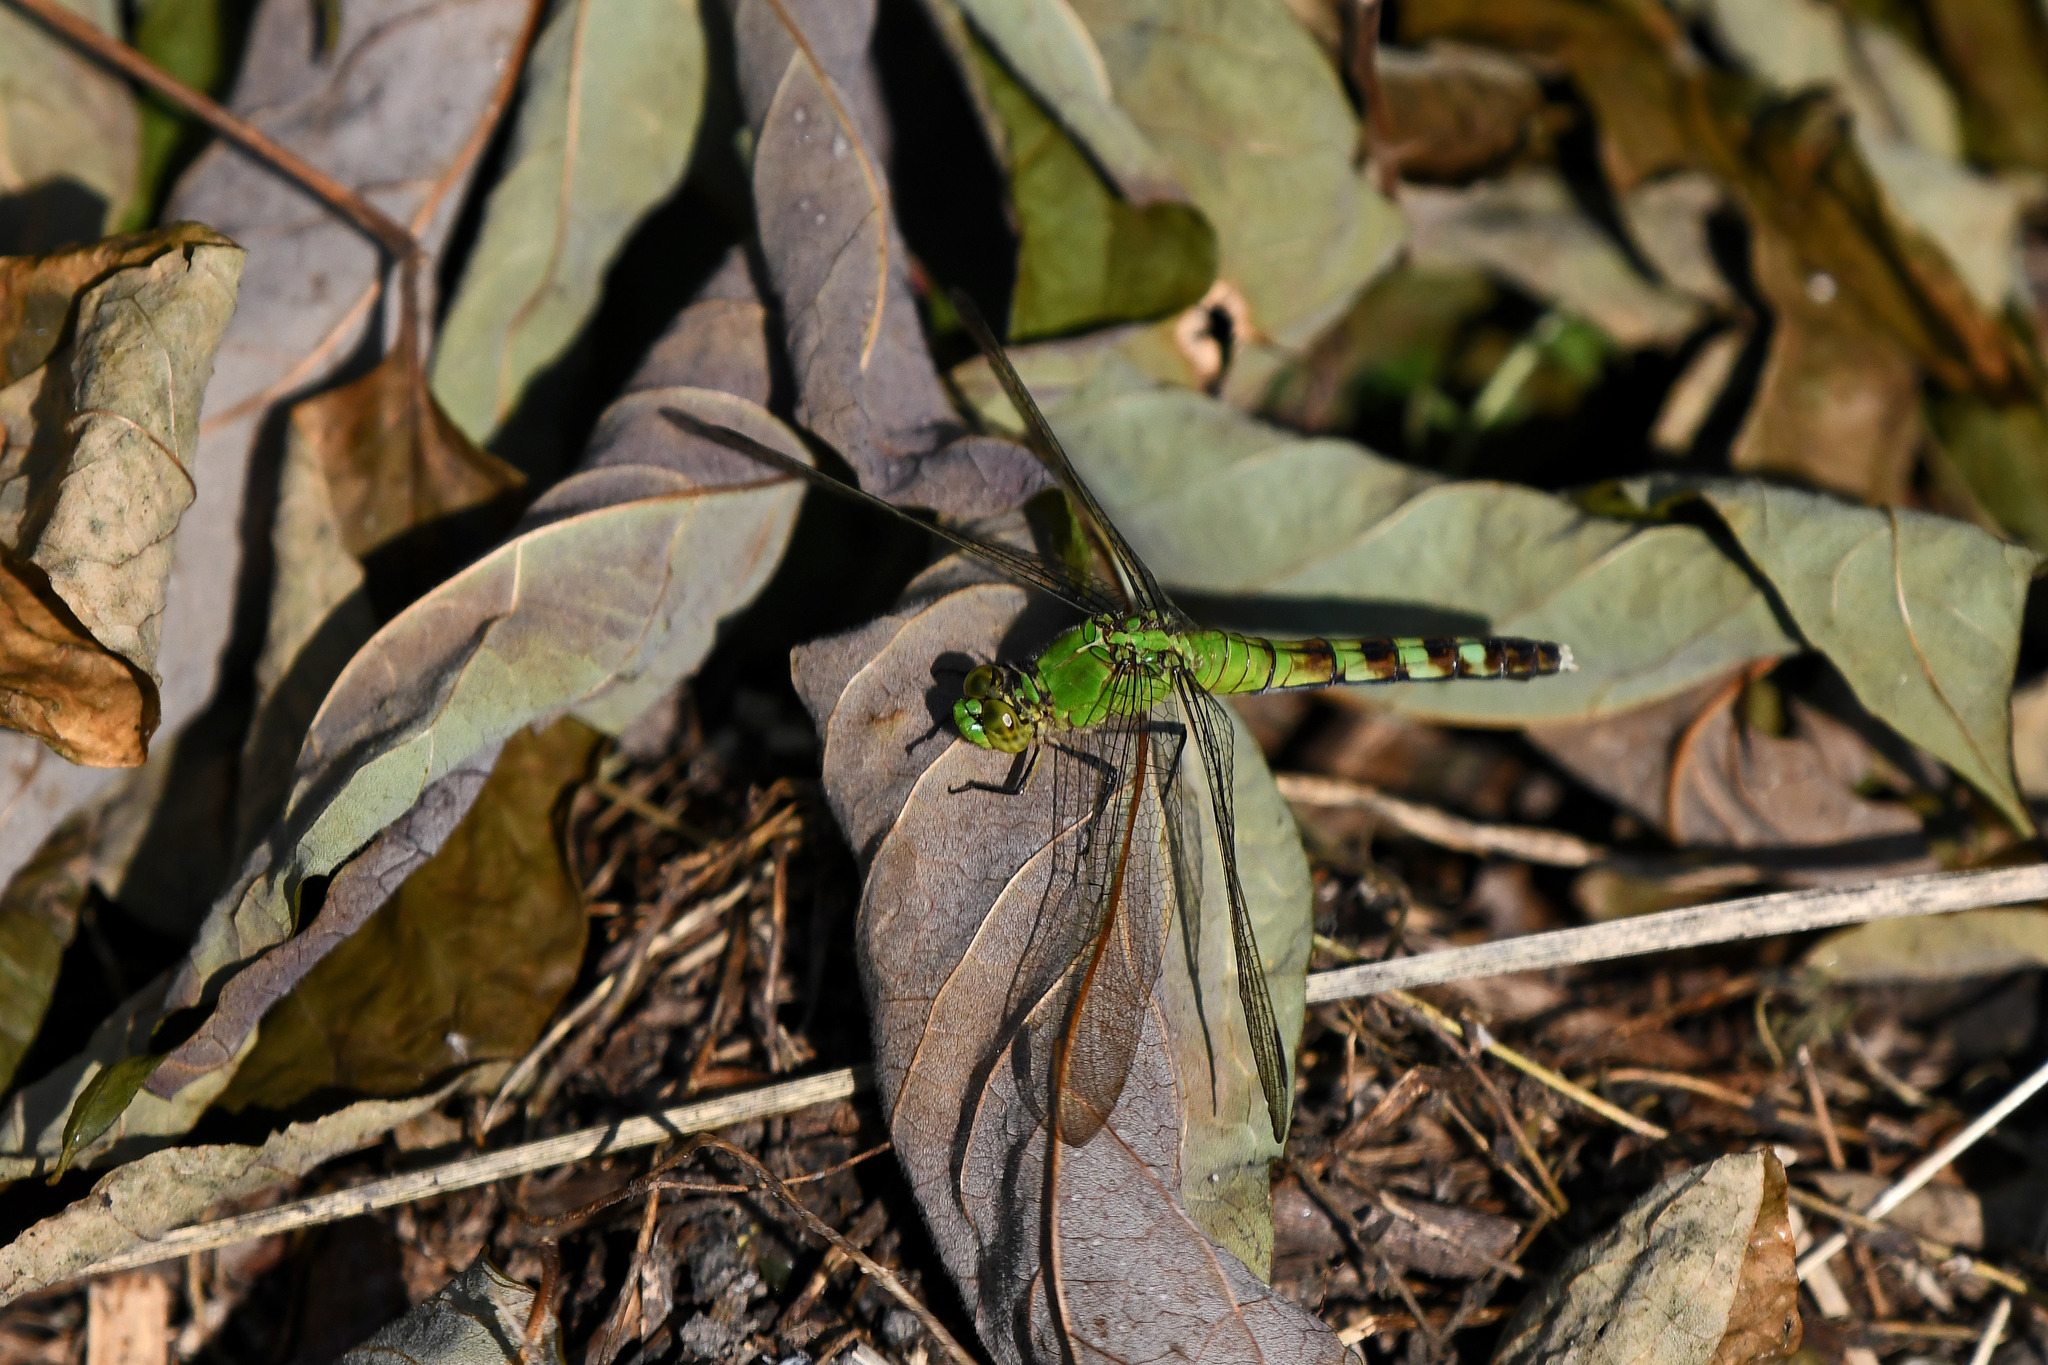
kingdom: Animalia
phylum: Arthropoda
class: Insecta
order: Odonata
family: Libellulidae
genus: Erythemis
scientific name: Erythemis simplicicollis
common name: Eastern pondhawk
